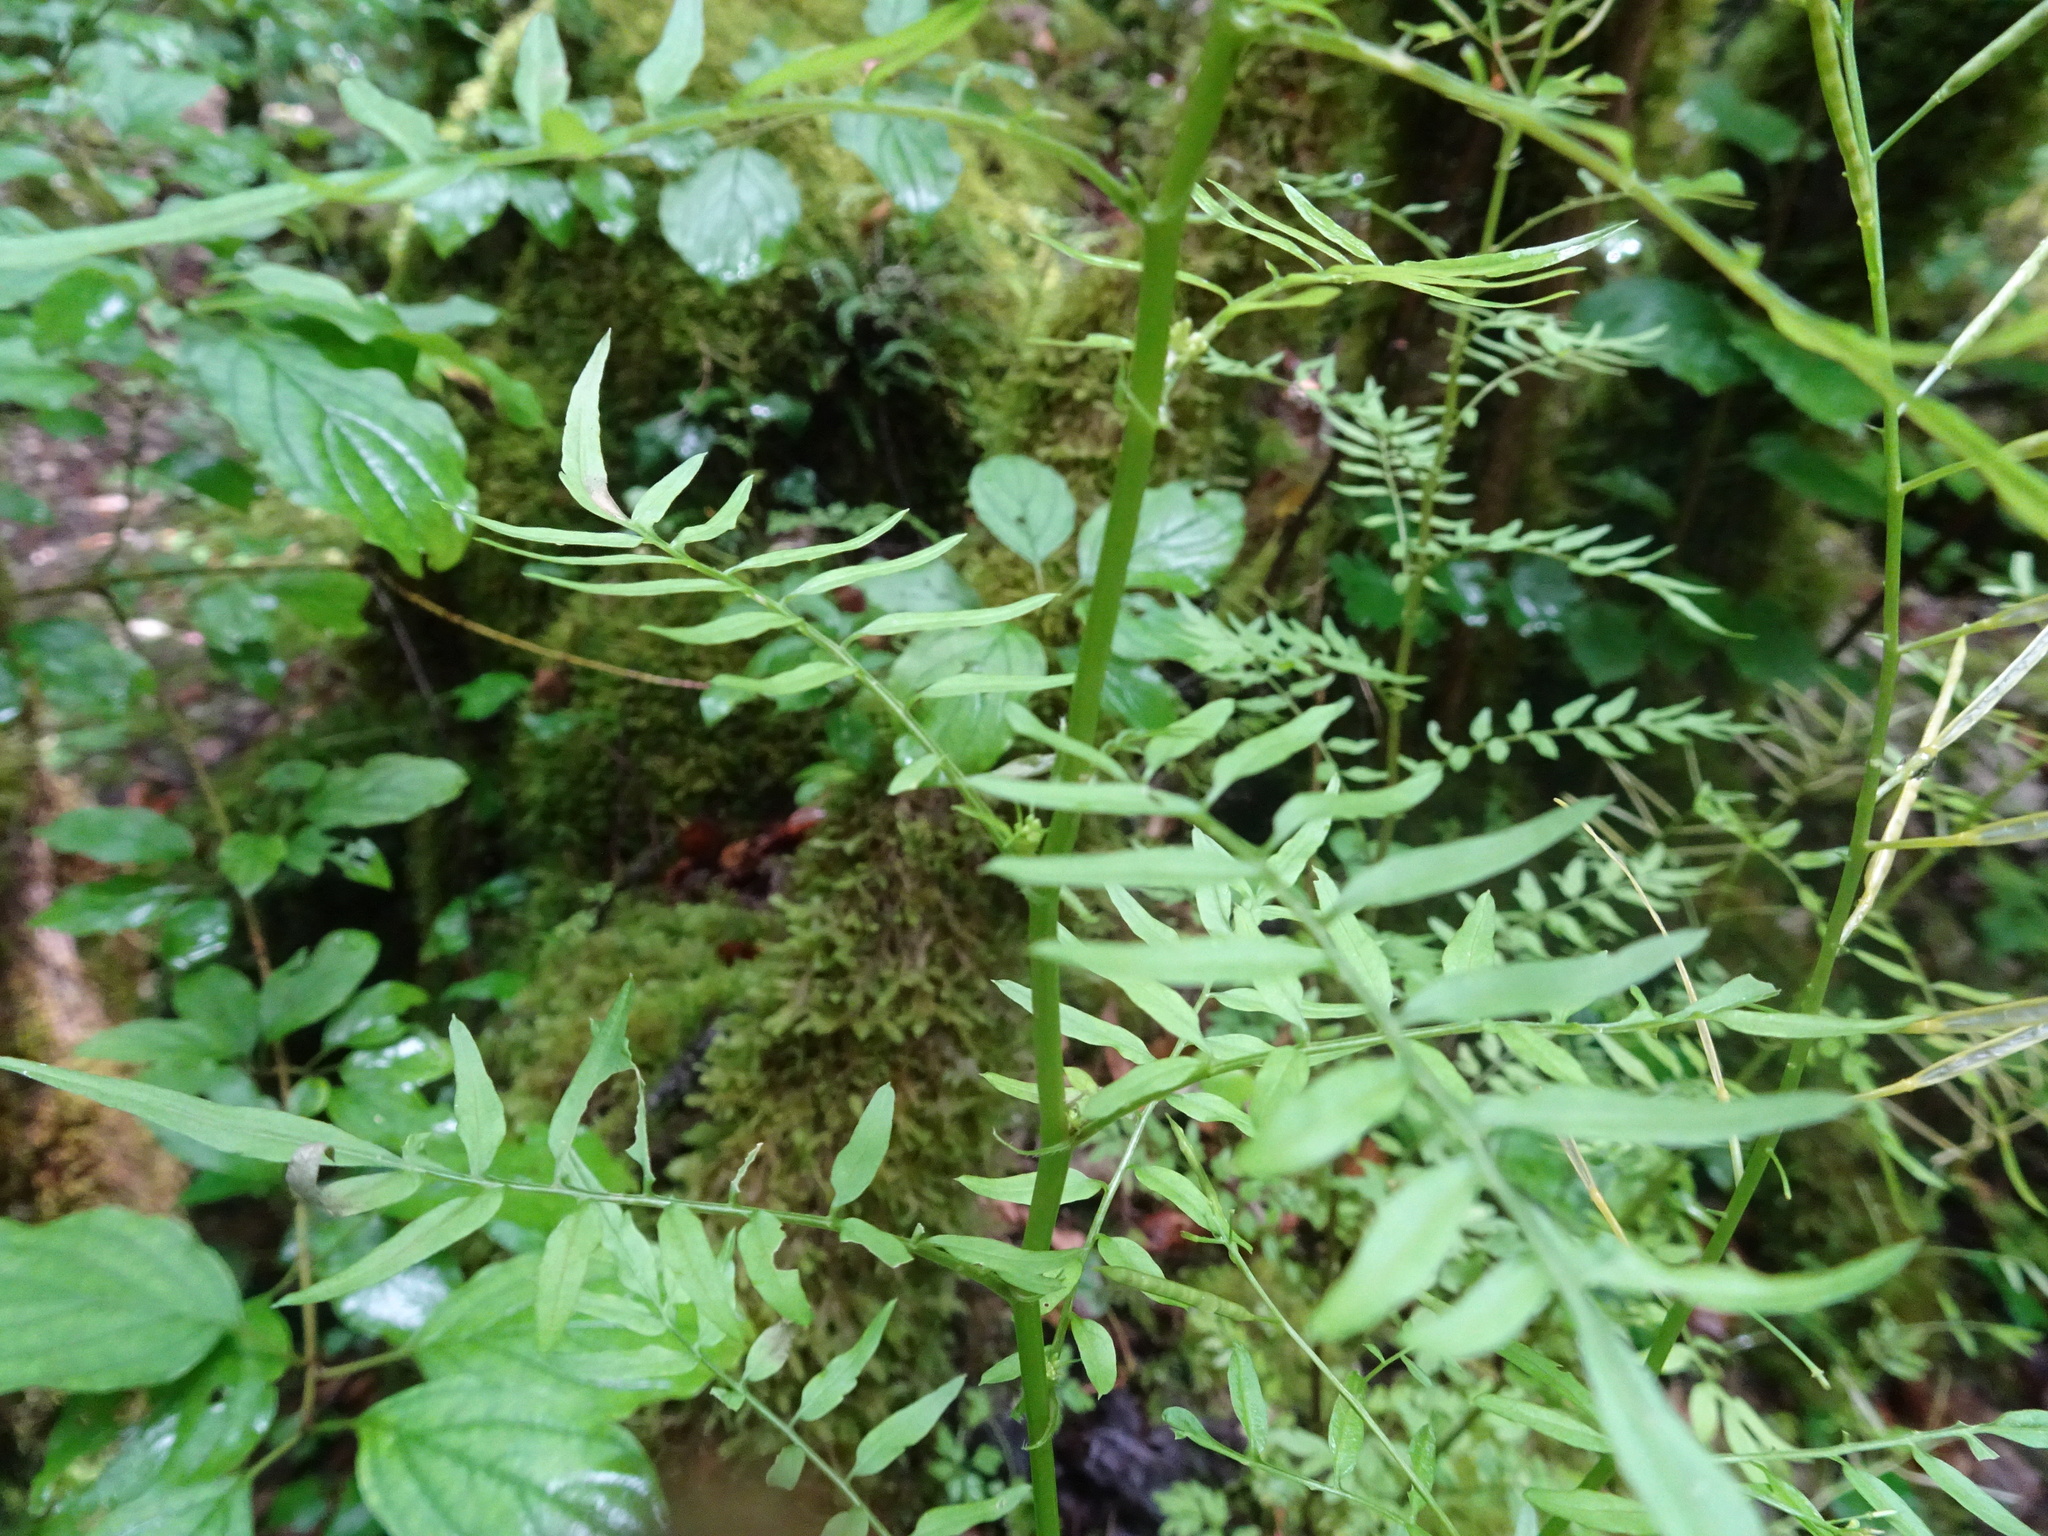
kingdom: Plantae
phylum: Tracheophyta
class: Magnoliopsida
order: Brassicales
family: Brassicaceae
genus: Cardamine
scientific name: Cardamine impatiens
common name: Narrow-leaved bitter-cress
